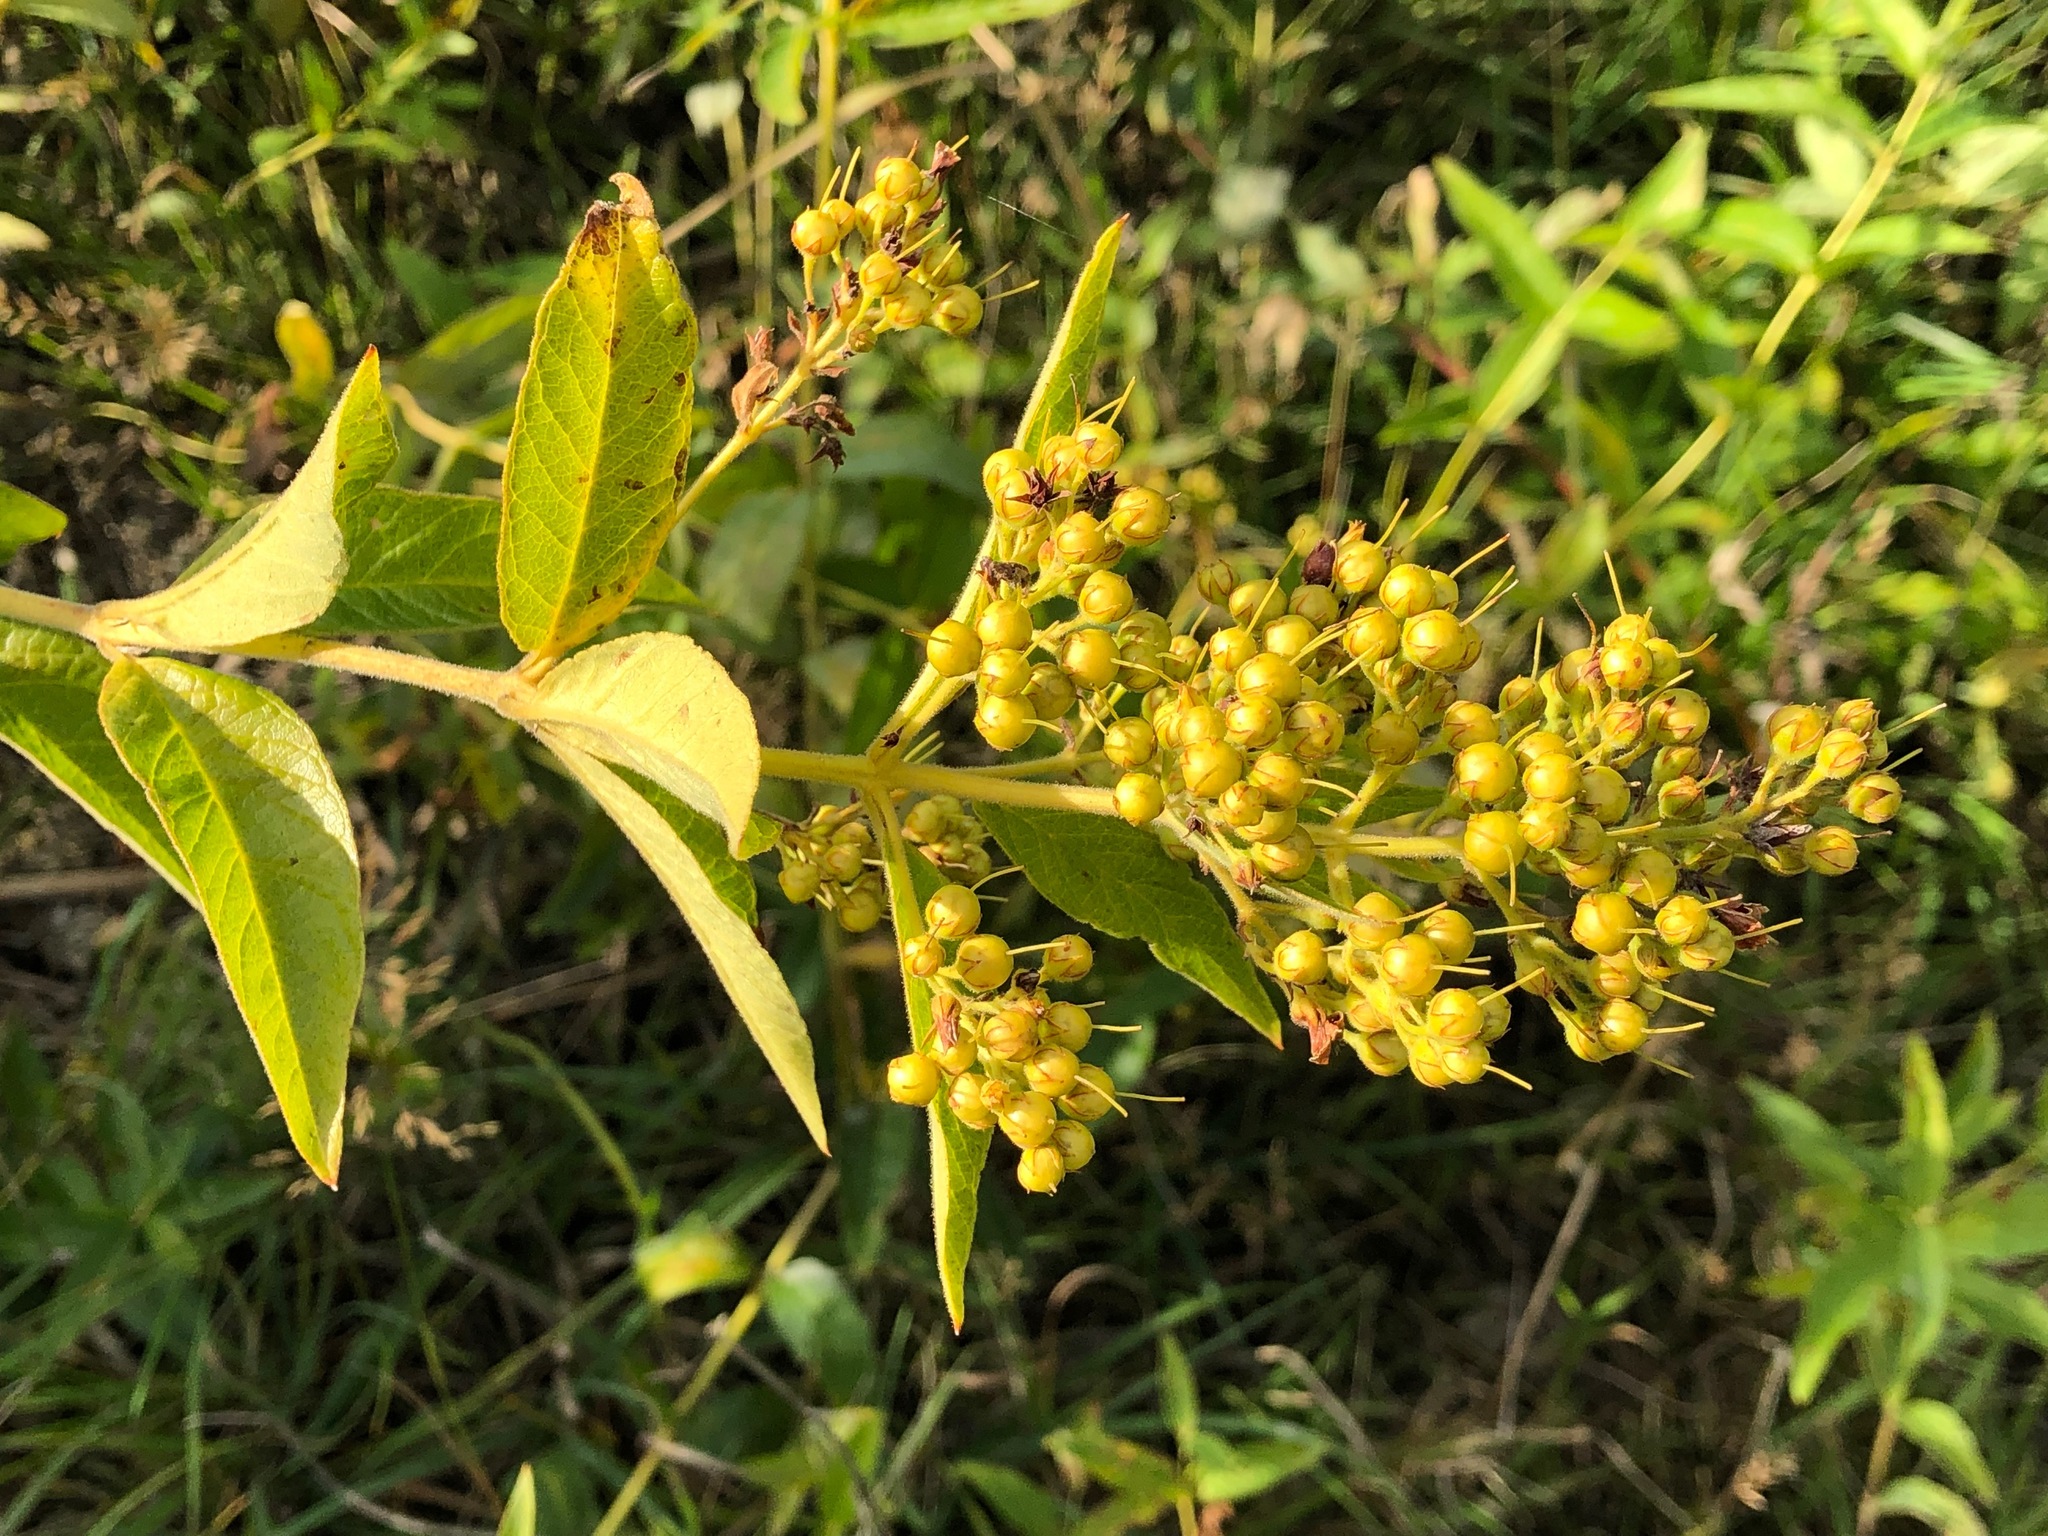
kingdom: Plantae
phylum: Tracheophyta
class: Magnoliopsida
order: Ericales
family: Primulaceae
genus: Lysimachia
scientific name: Lysimachia vulgaris
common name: Yellow loosestrife
